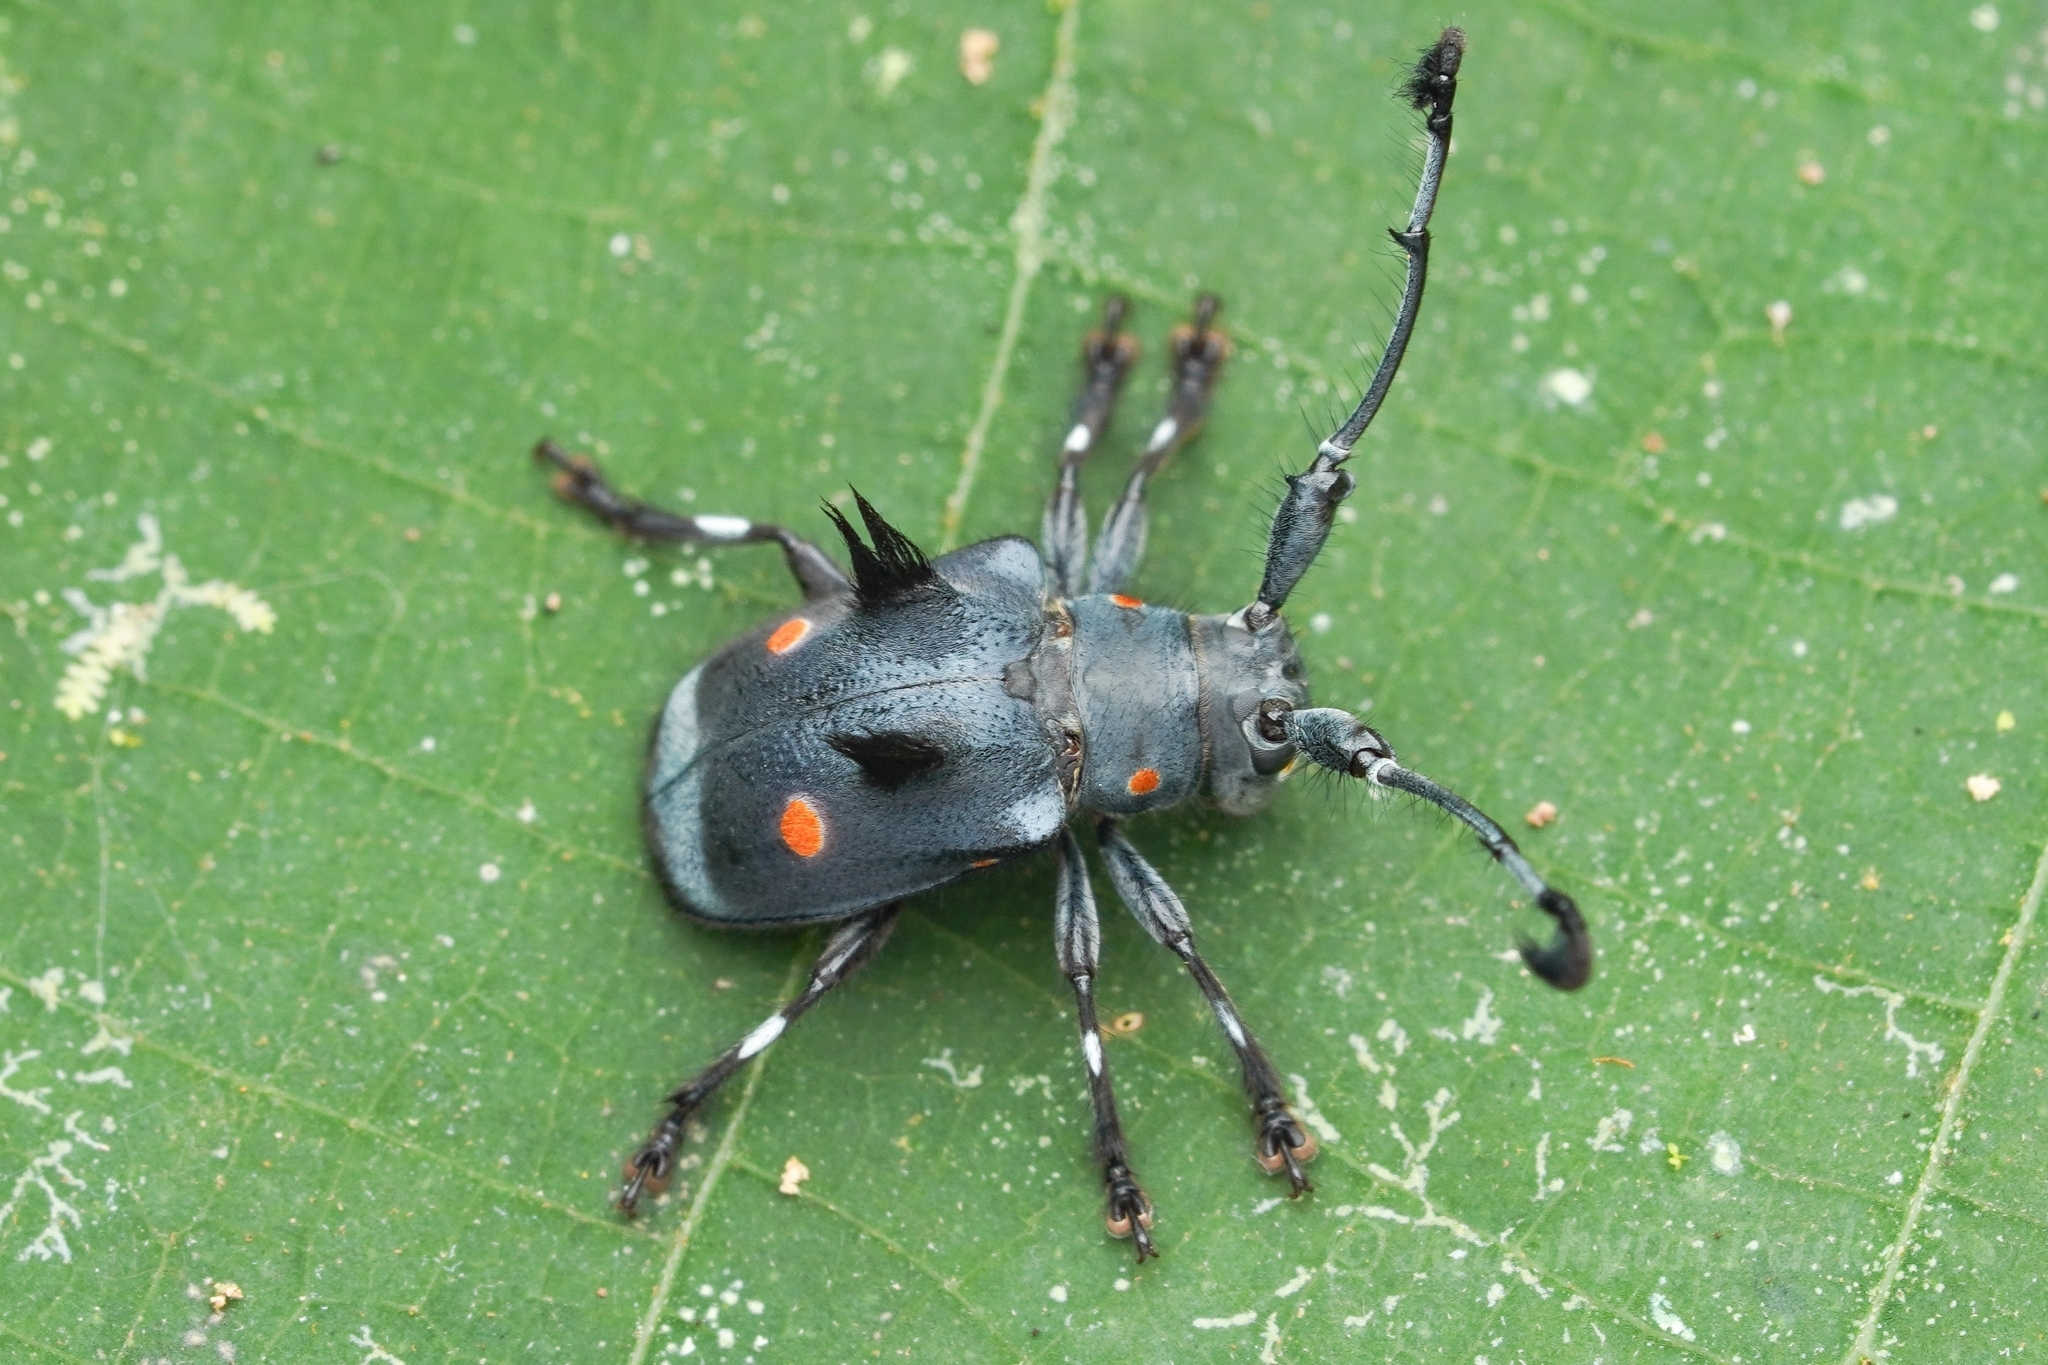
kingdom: Animalia
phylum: Arthropoda
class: Insecta
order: Coleoptera
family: Cerambycidae
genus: Zelota
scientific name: Zelota spathomelina
